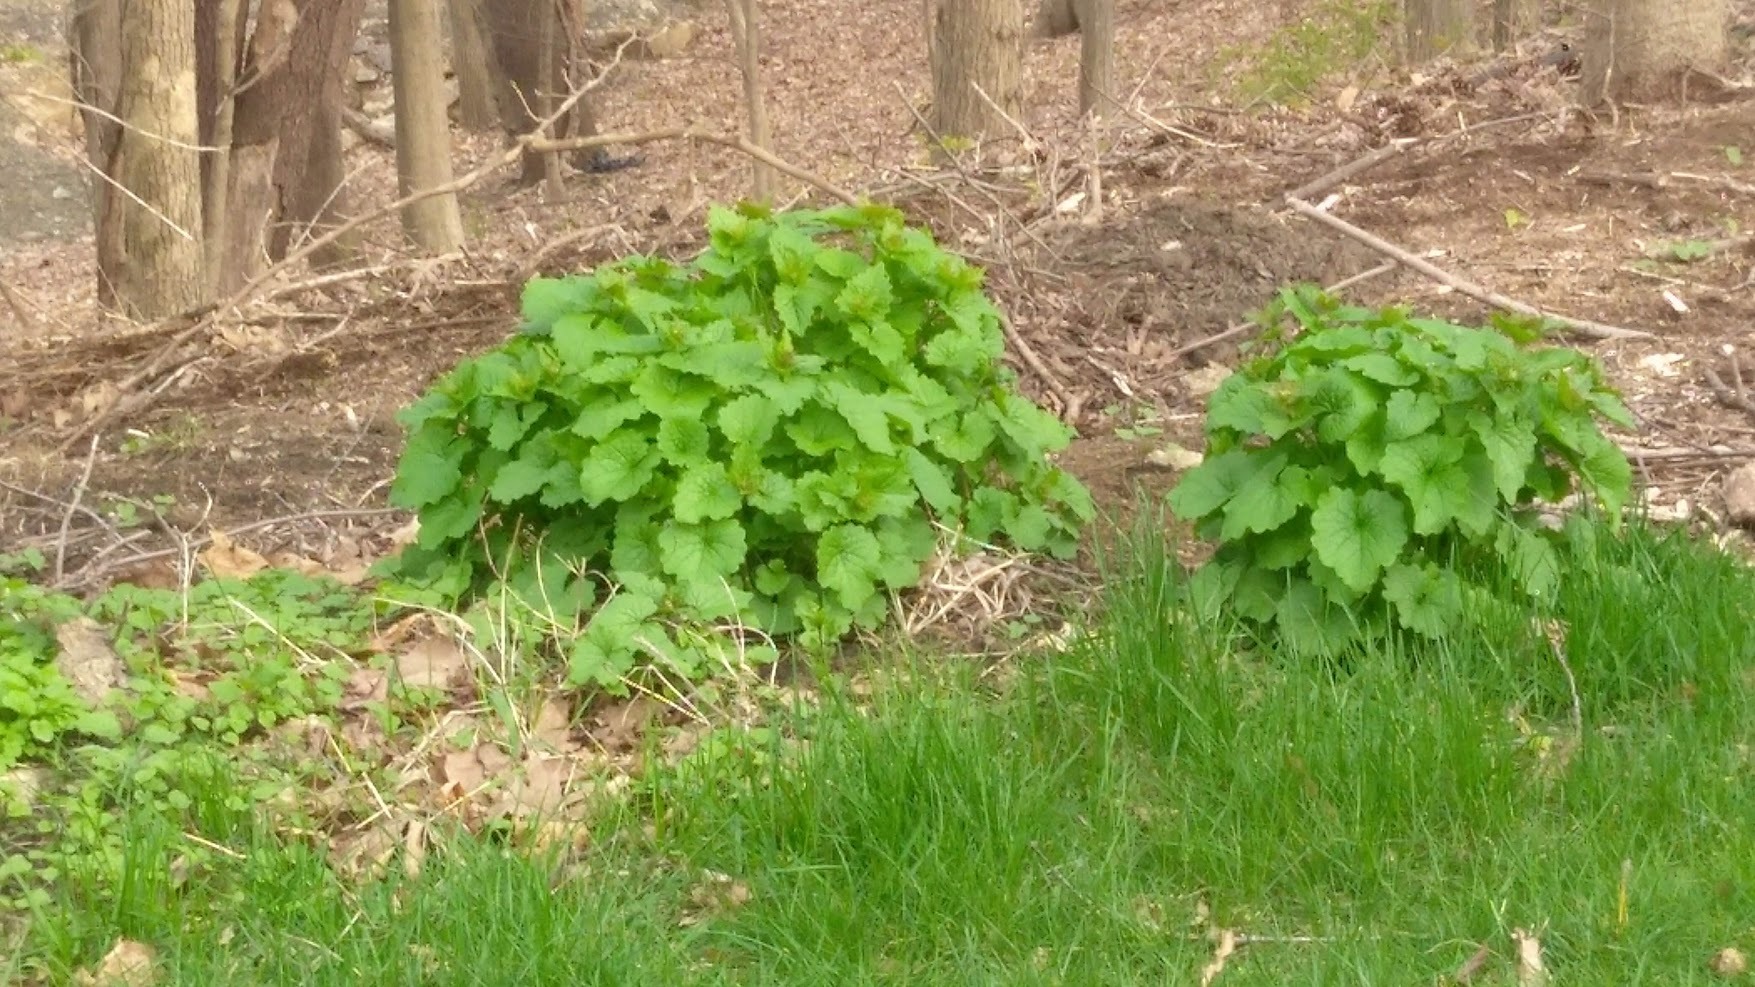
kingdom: Plantae
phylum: Tracheophyta
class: Magnoliopsida
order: Brassicales
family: Brassicaceae
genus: Alliaria
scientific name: Alliaria petiolata
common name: Garlic mustard
